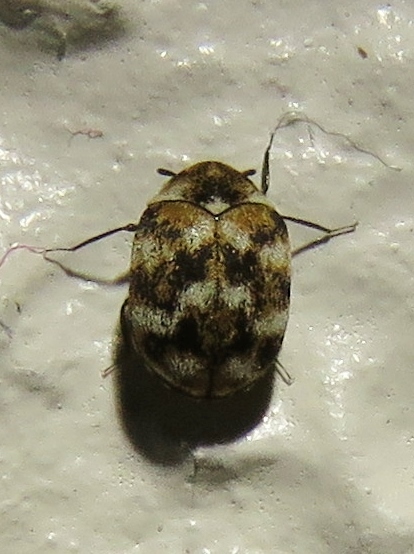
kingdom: Animalia
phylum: Arthropoda
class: Insecta
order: Coleoptera
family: Dermestidae
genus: Anthrenus
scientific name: Anthrenus verbasci
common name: Varied carpet beetle
